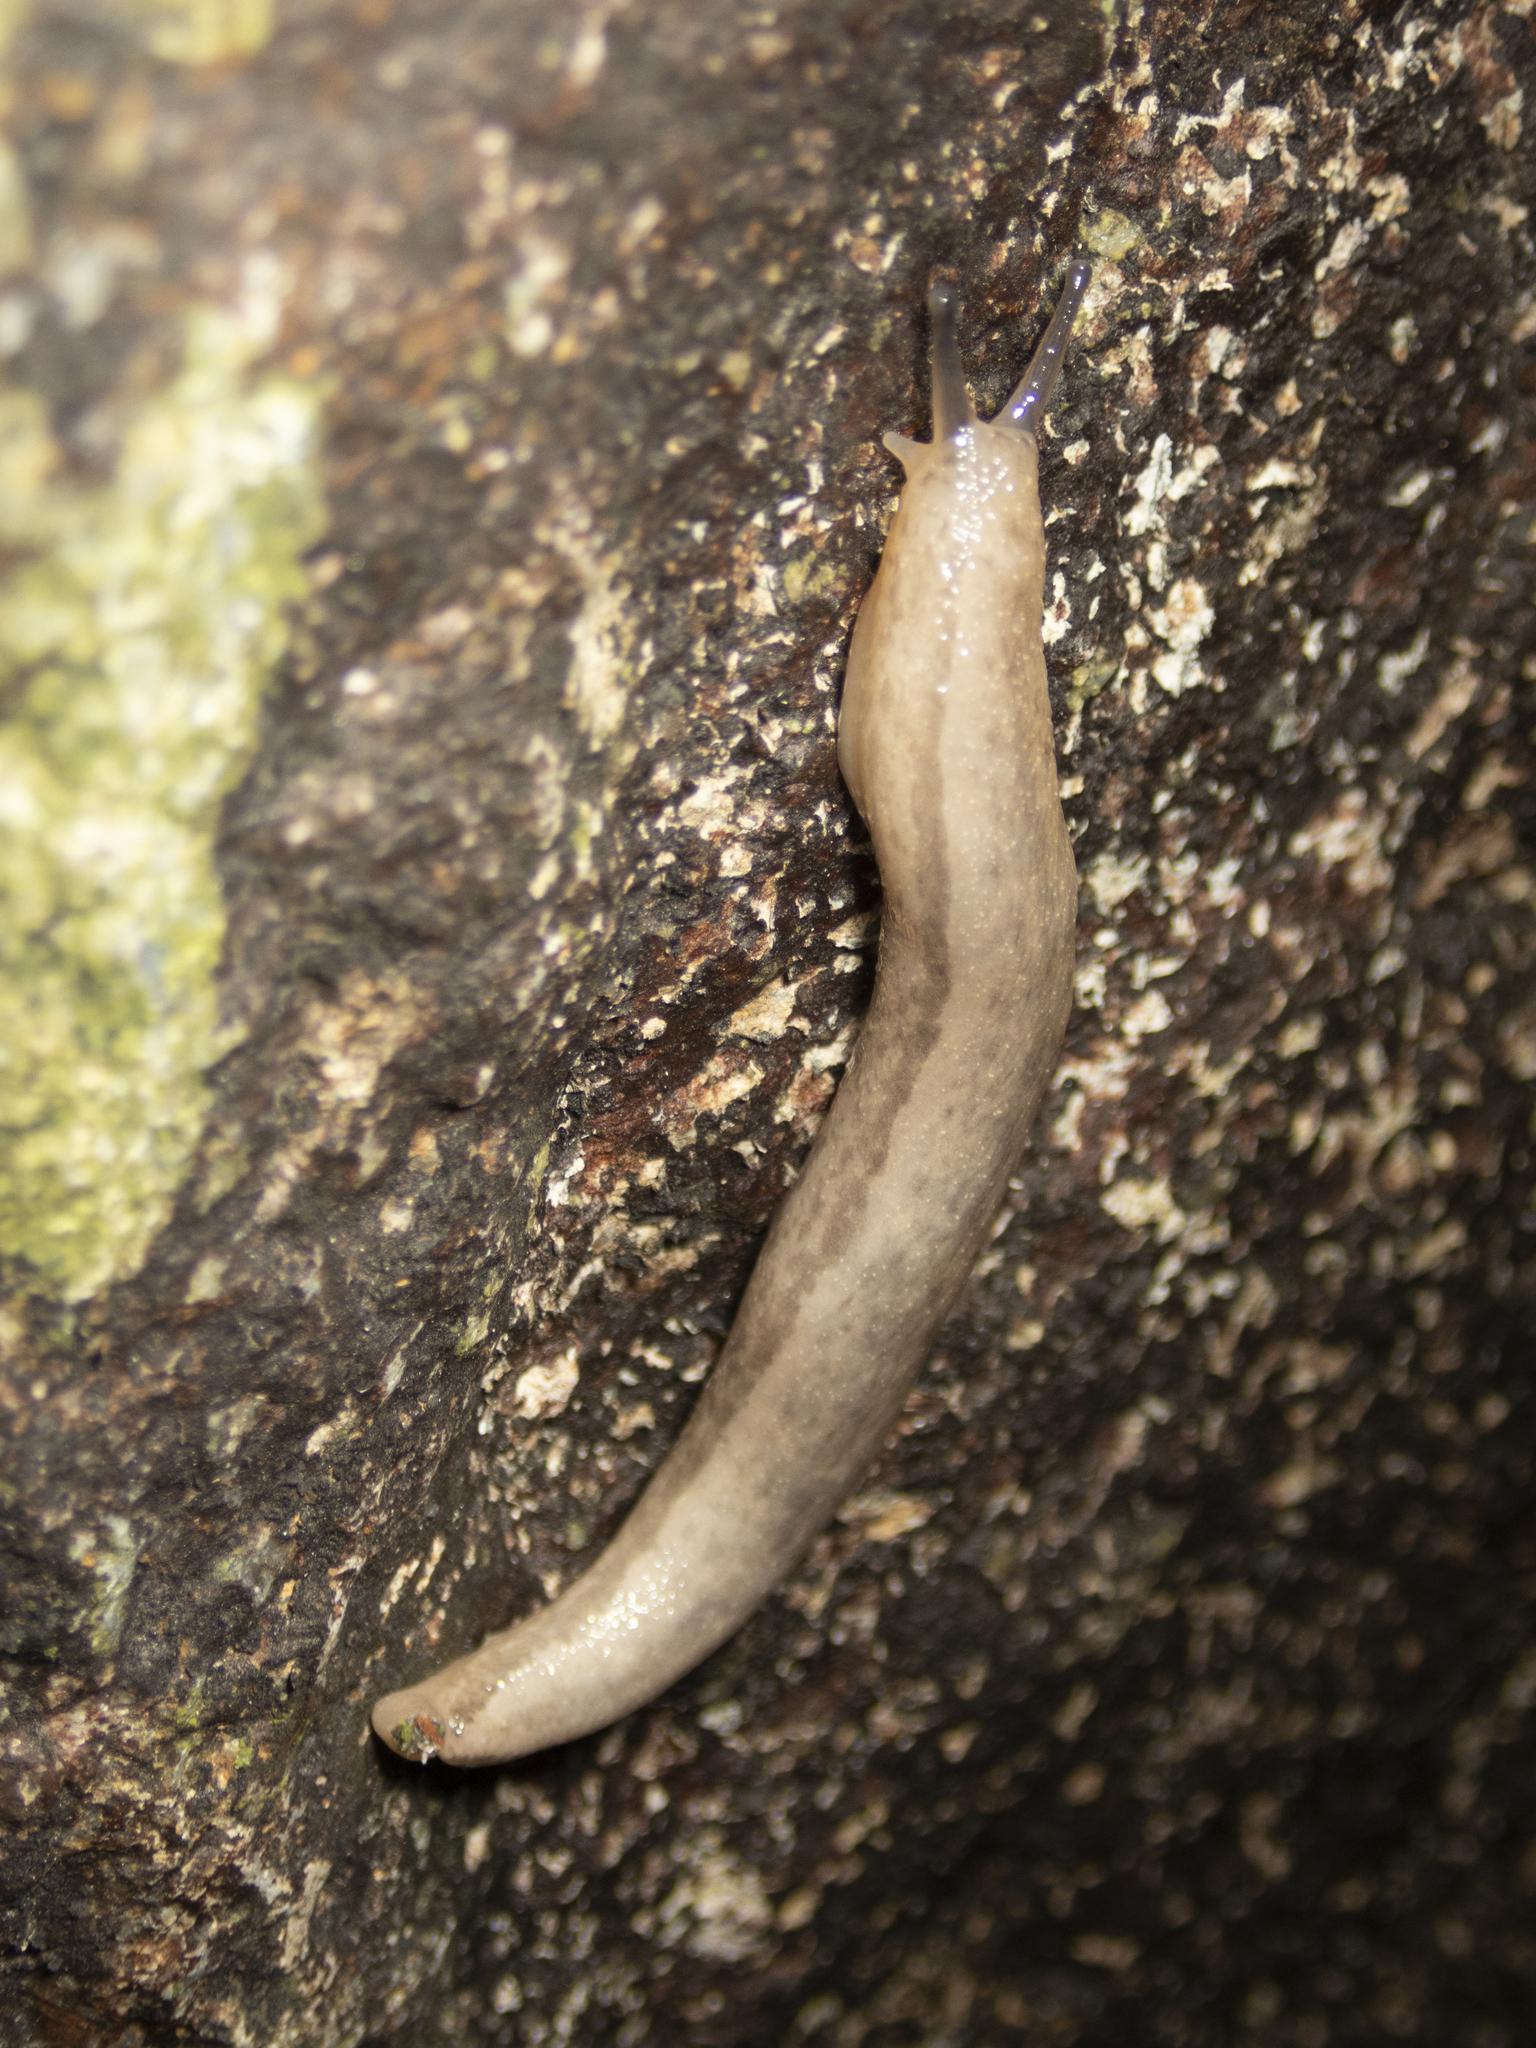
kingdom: Animalia
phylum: Mollusca
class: Gastropoda
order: Stylommatophora
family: Philomycidae
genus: Meghimatium
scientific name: Meghimatium bilineatum
